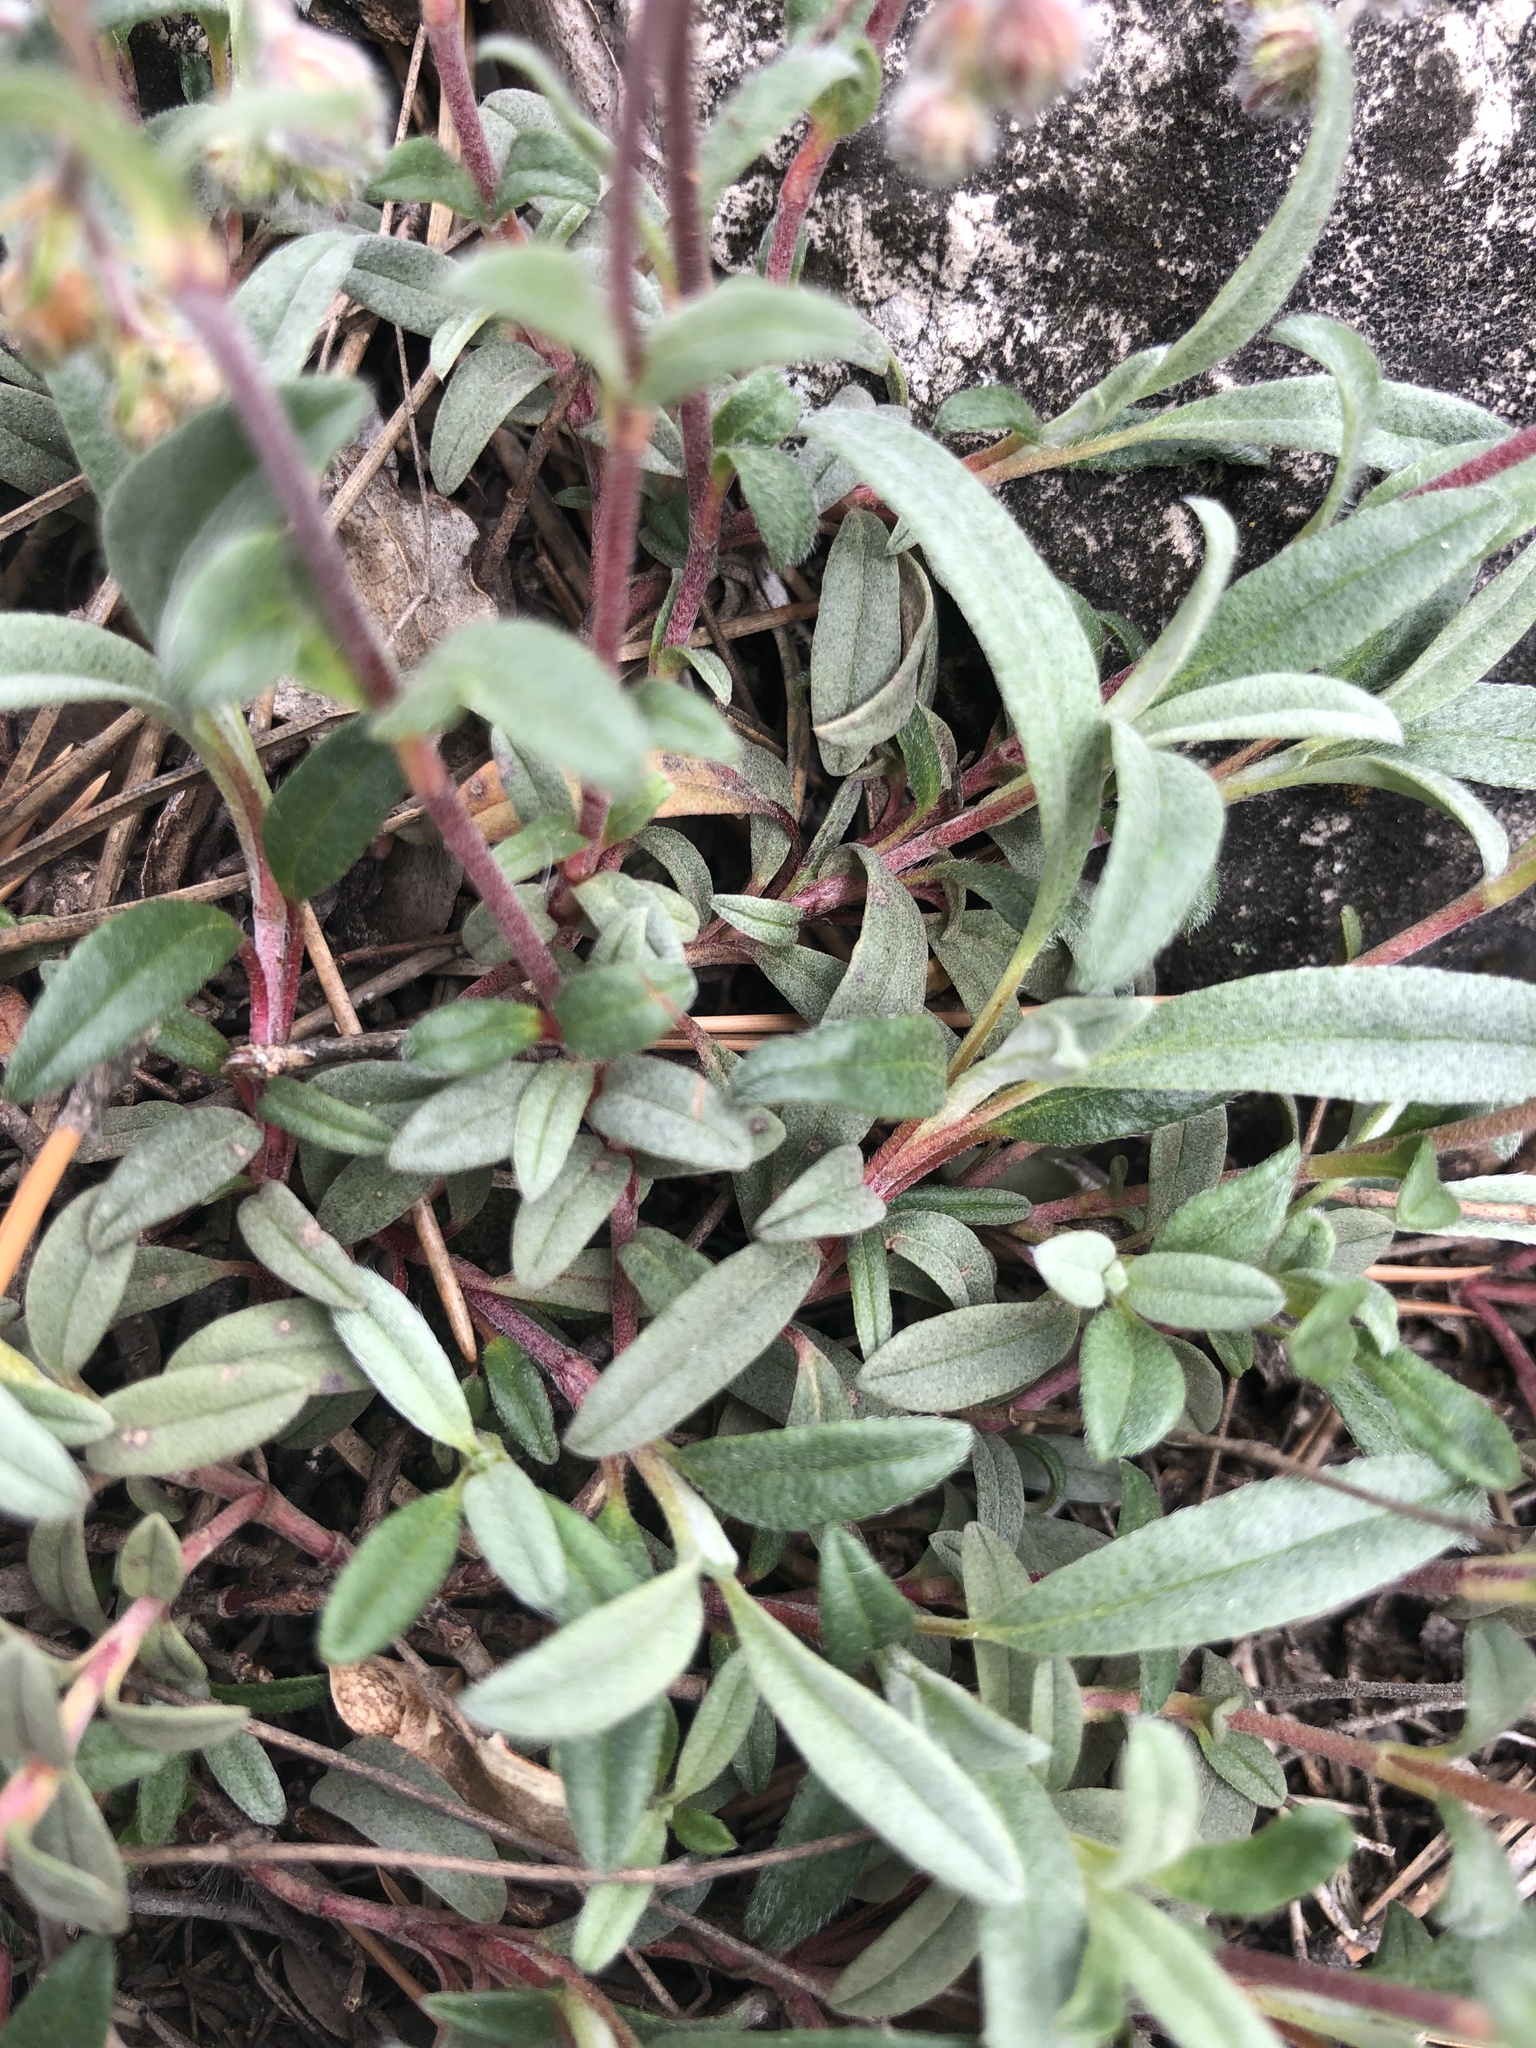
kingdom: Plantae
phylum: Tracheophyta
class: Magnoliopsida
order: Malvales
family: Cistaceae
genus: Helianthemum
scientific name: Helianthemum canum
